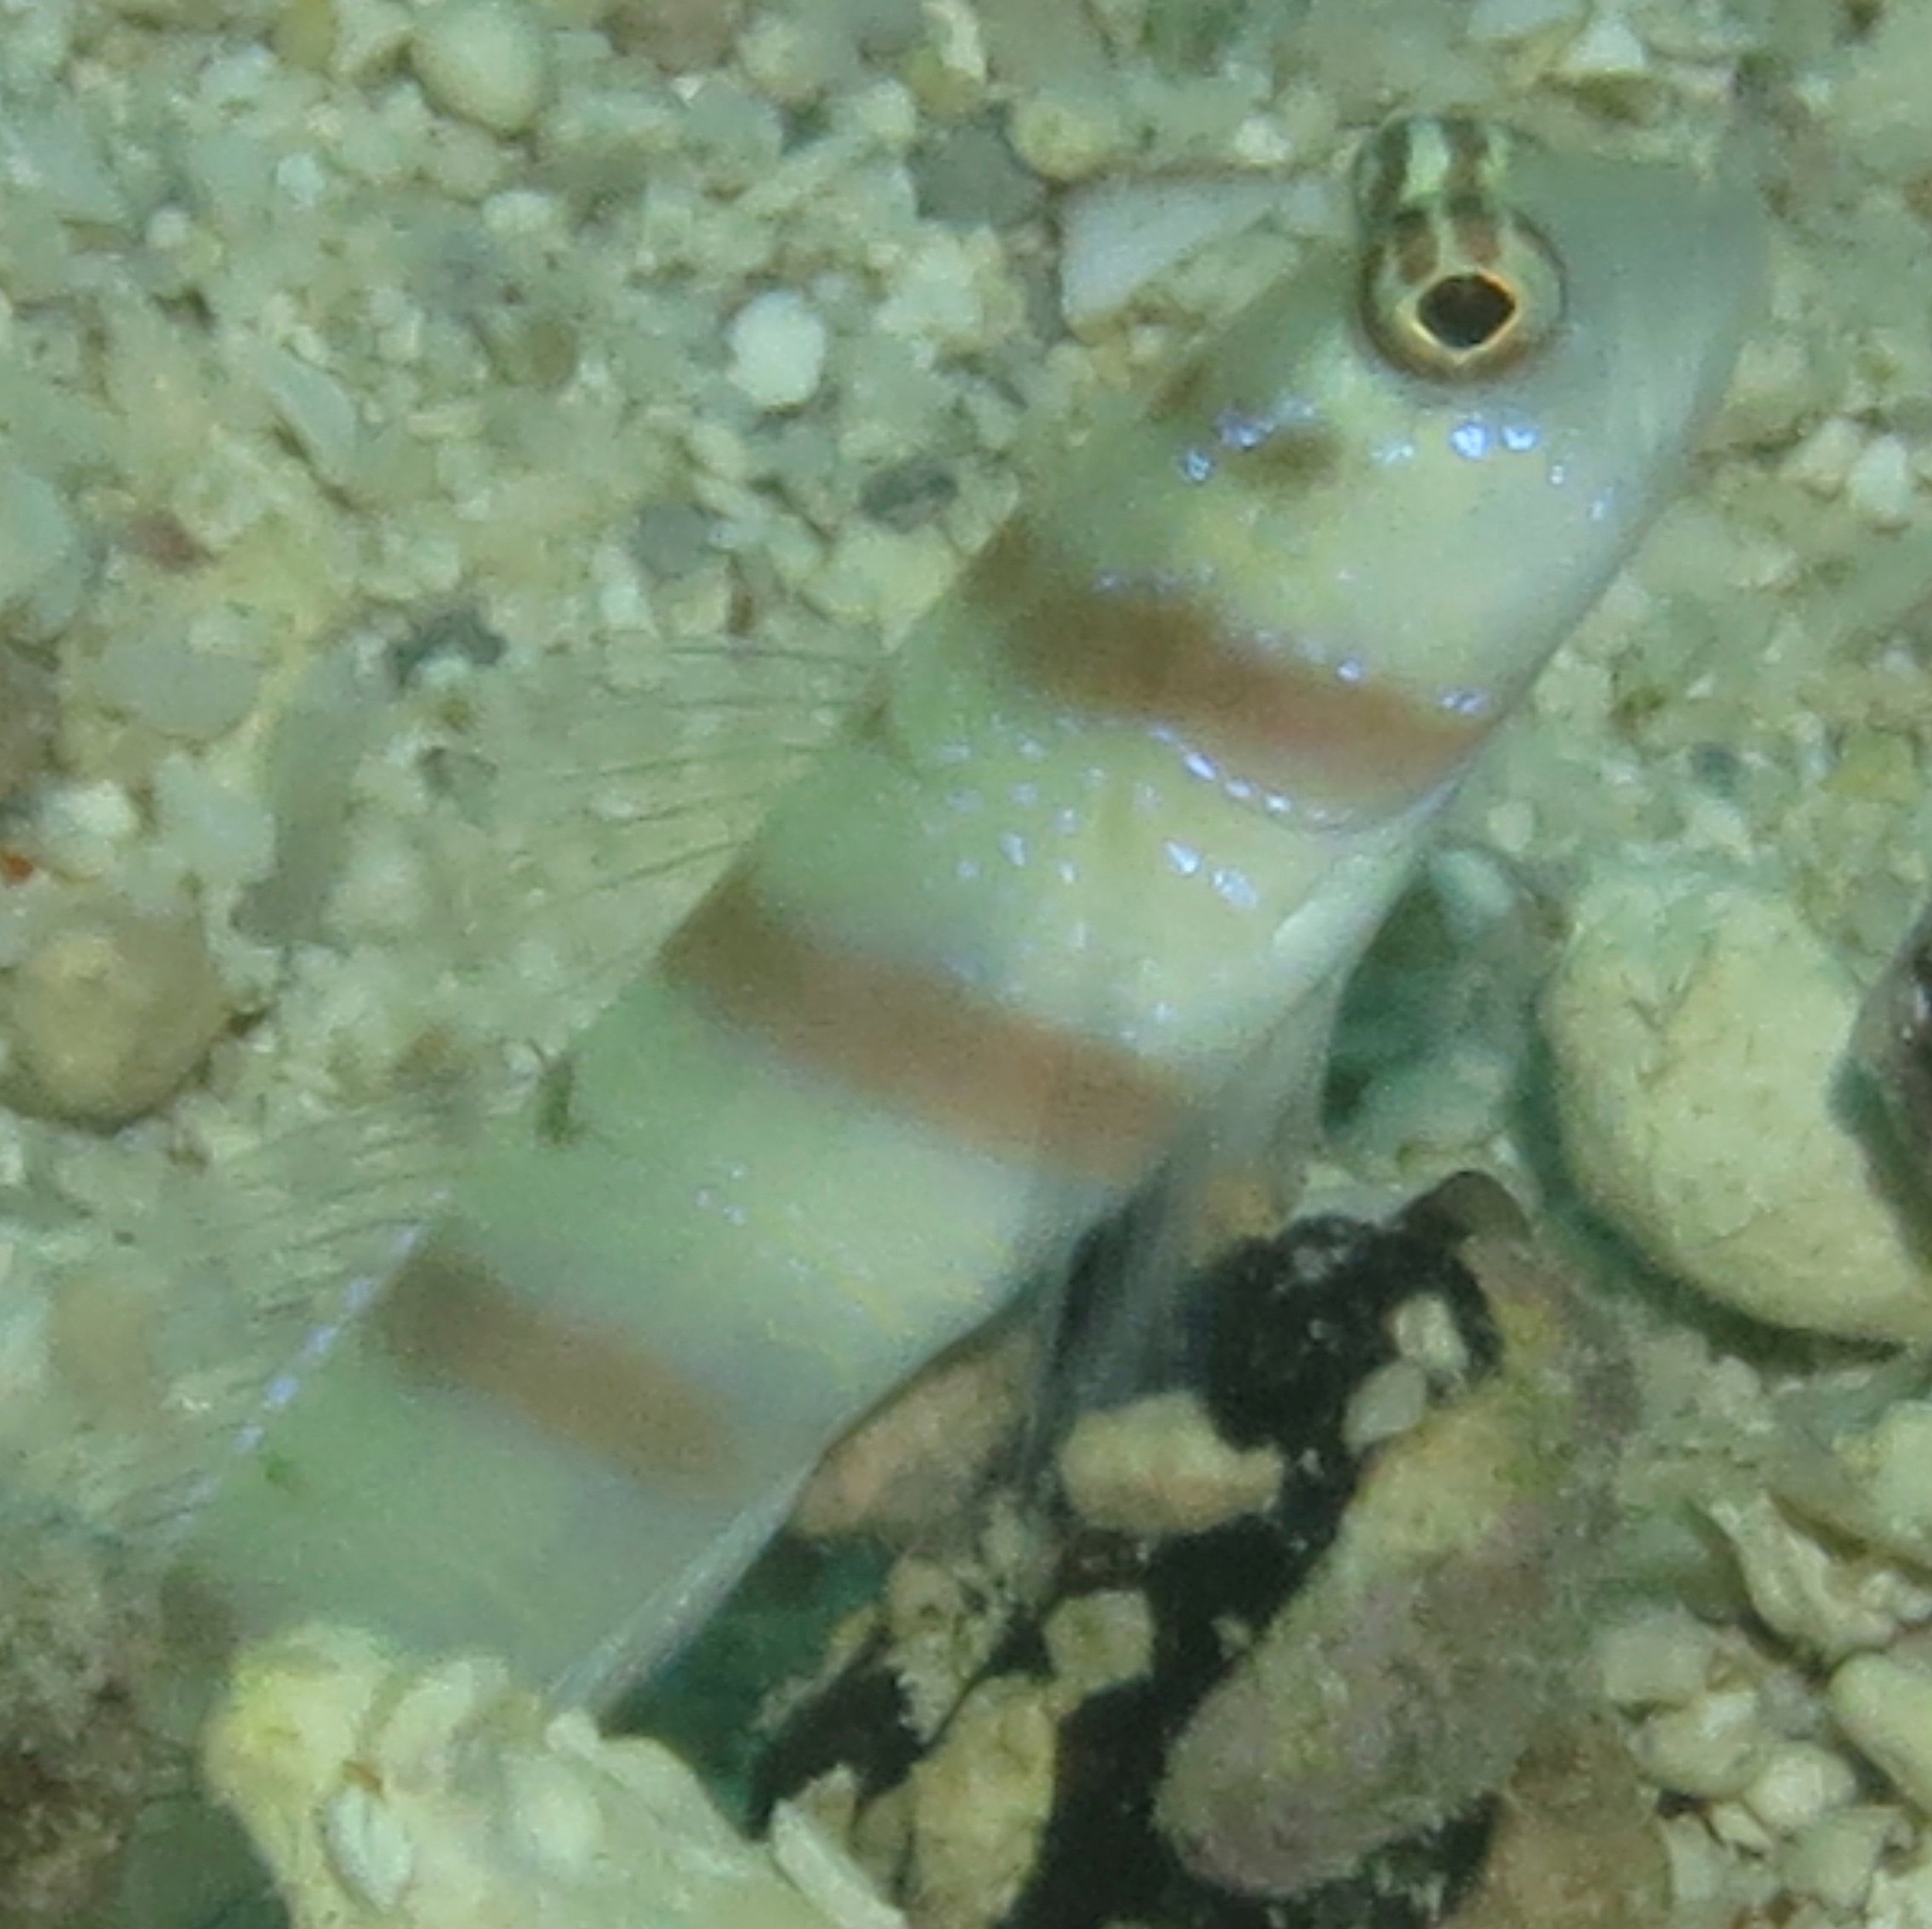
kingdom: Animalia
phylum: Chordata
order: Perciformes
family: Gobiidae
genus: Amblyeleotris
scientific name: Amblyeleotris steinitzi
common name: Steinitz' prawn-goby
